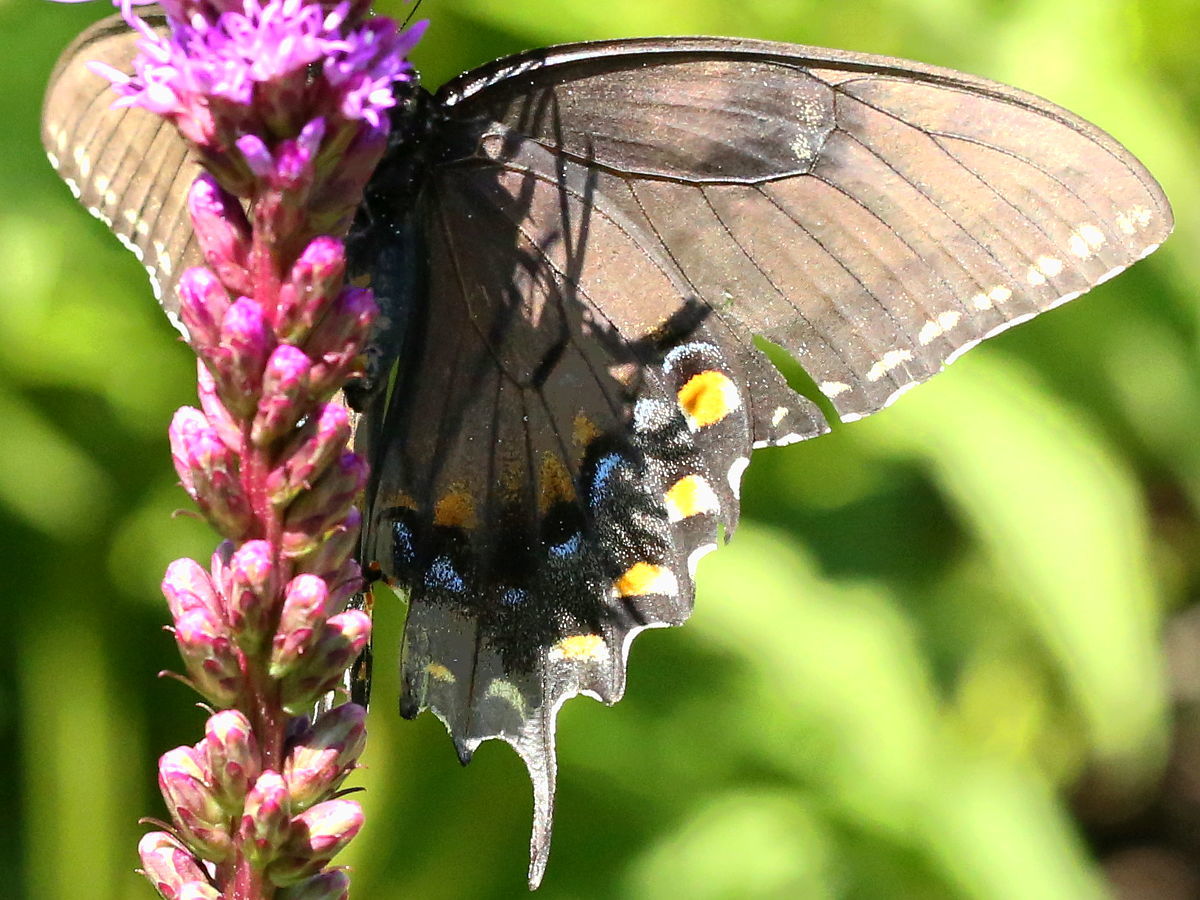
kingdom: Animalia
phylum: Arthropoda
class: Insecta
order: Lepidoptera
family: Papilionidae
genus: Papilio
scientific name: Papilio glaucus
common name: Tiger swallowtail
